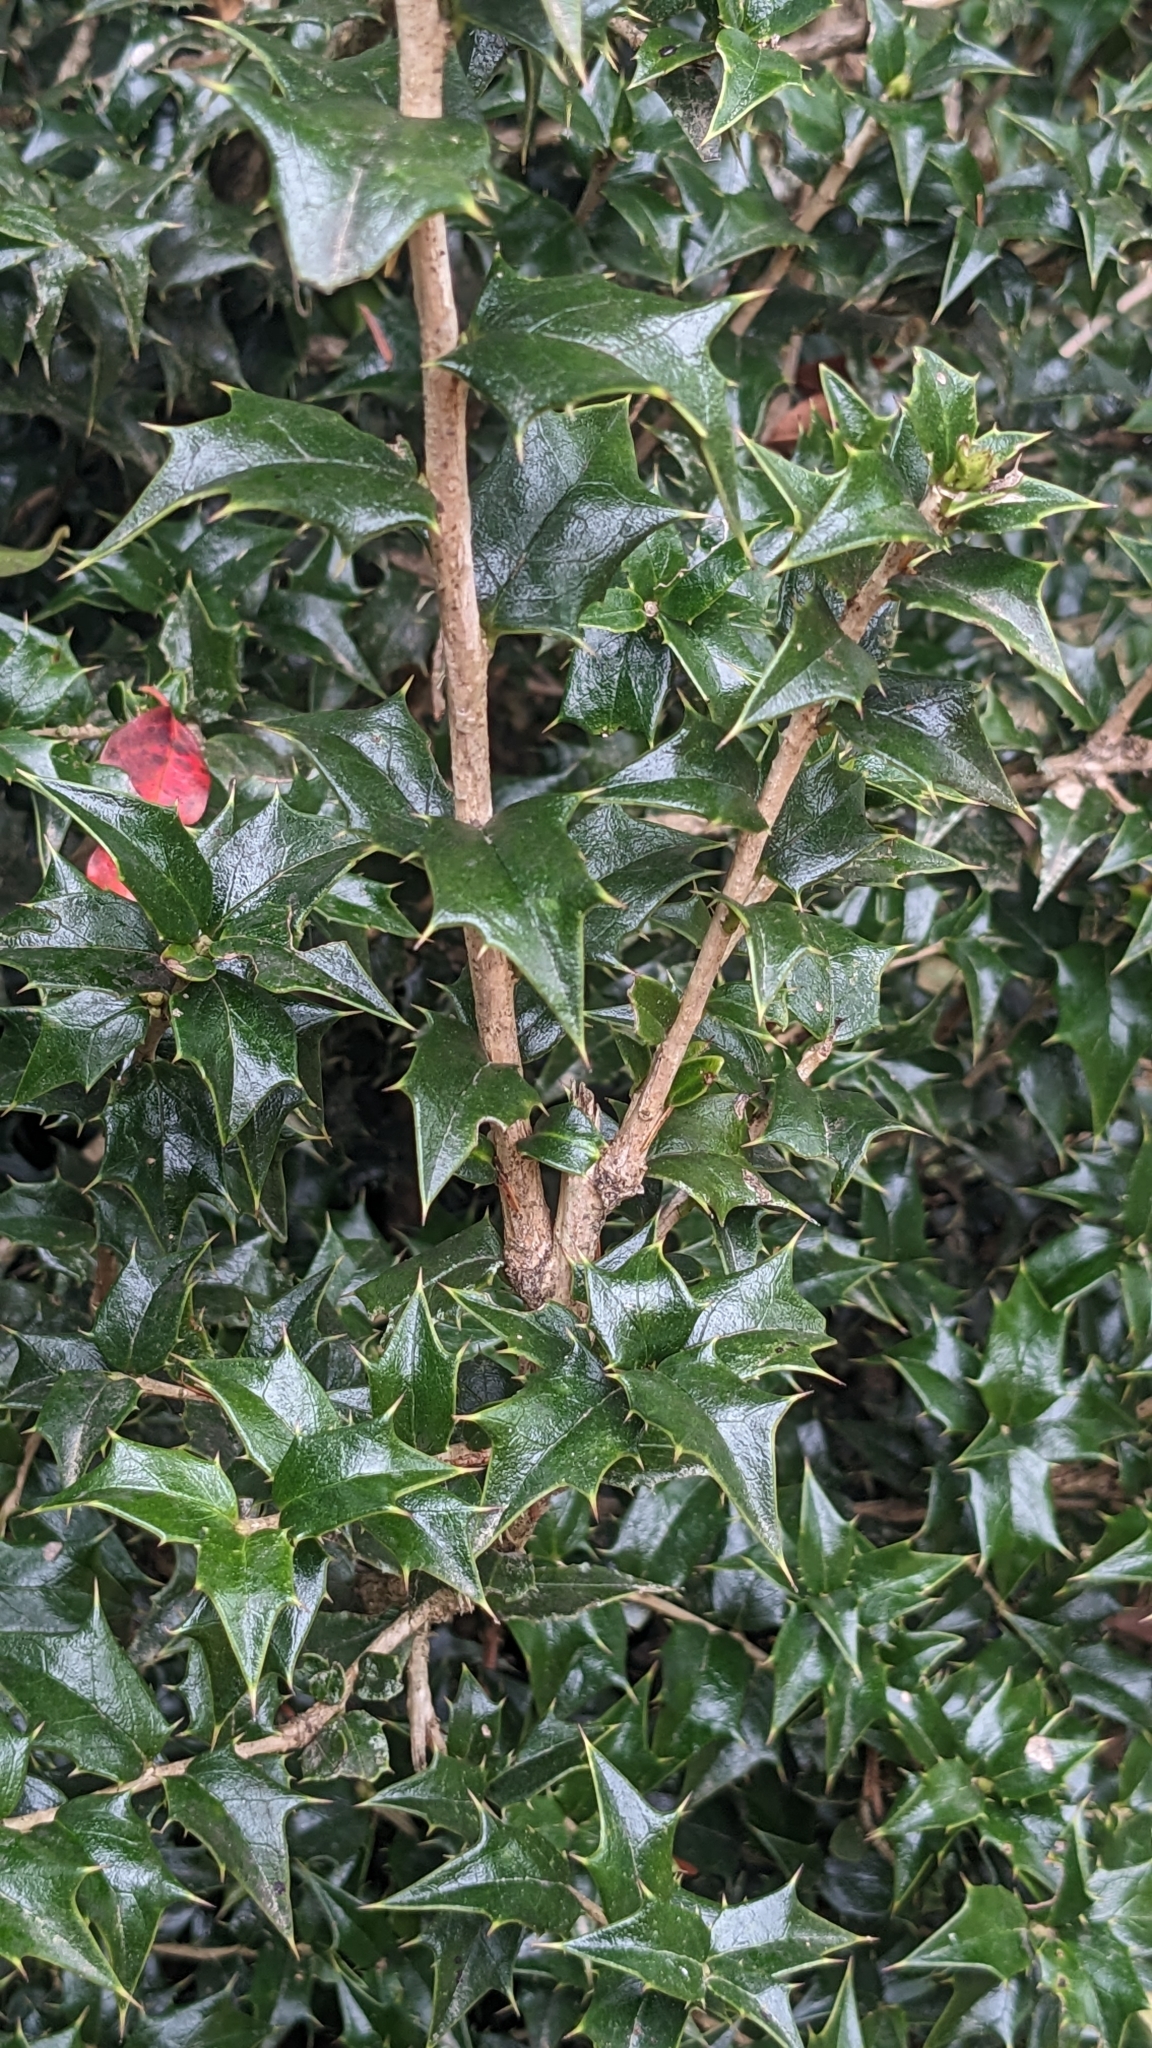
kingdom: Plantae
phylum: Tracheophyta
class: Magnoliopsida
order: Aquifoliales
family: Aquifoliaceae
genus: Ilex
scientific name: Ilex bioritsensis
